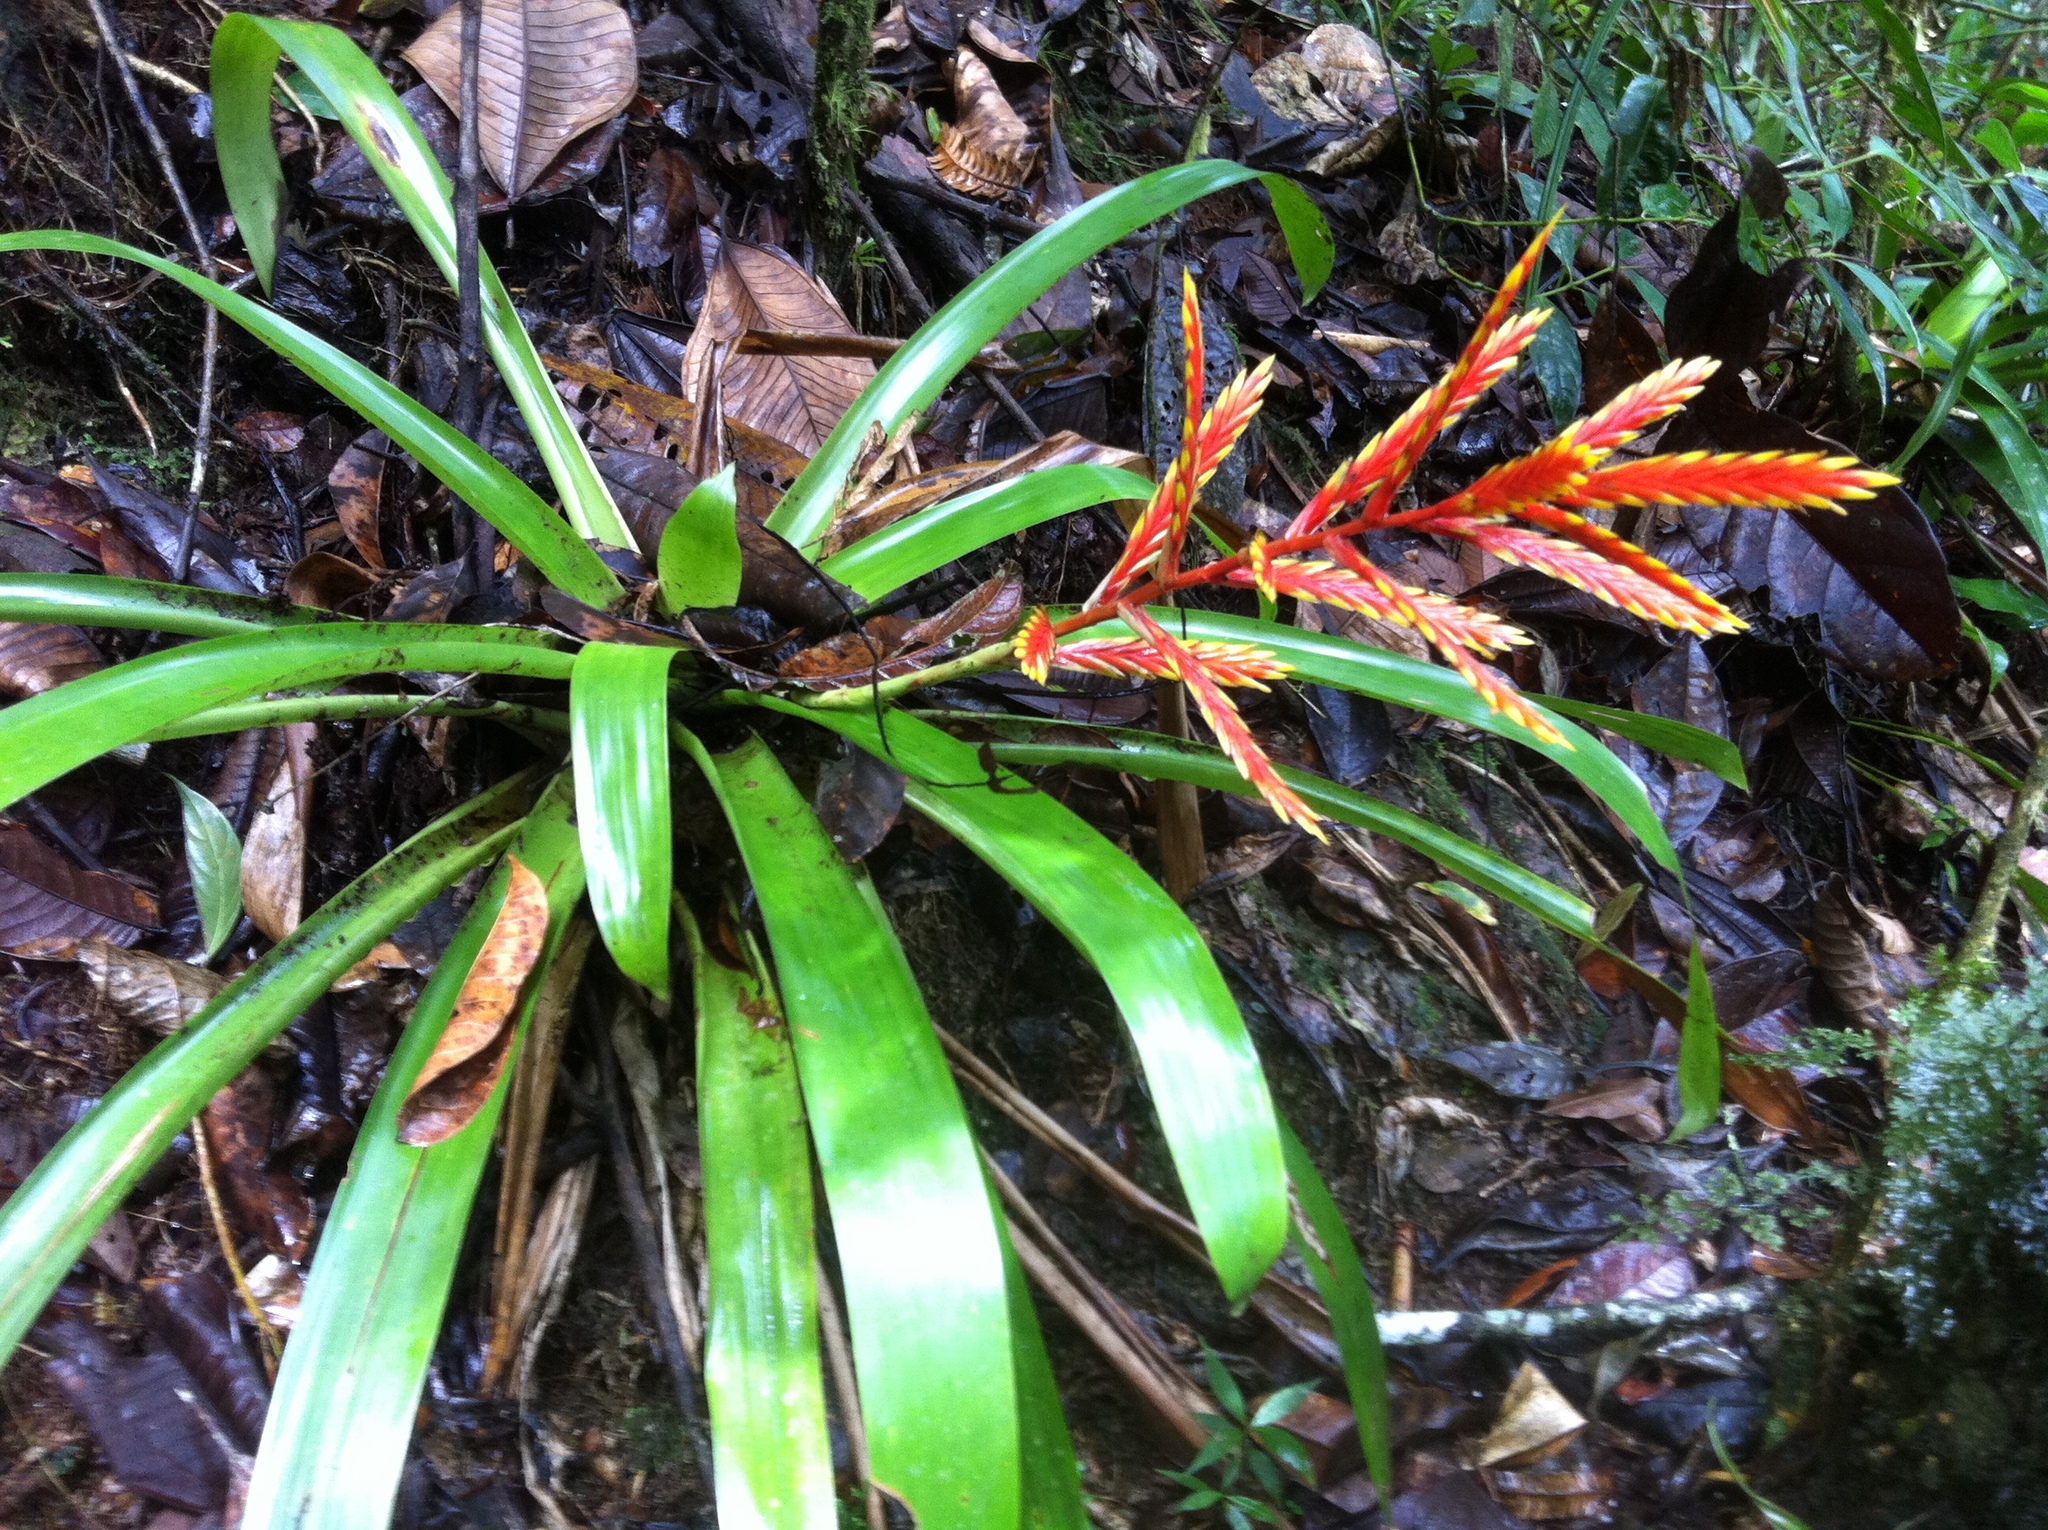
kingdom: Plantae
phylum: Tracheophyta
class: Liliopsida
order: Poales
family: Bromeliaceae
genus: Vriesea
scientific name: Vriesea zamorensis
